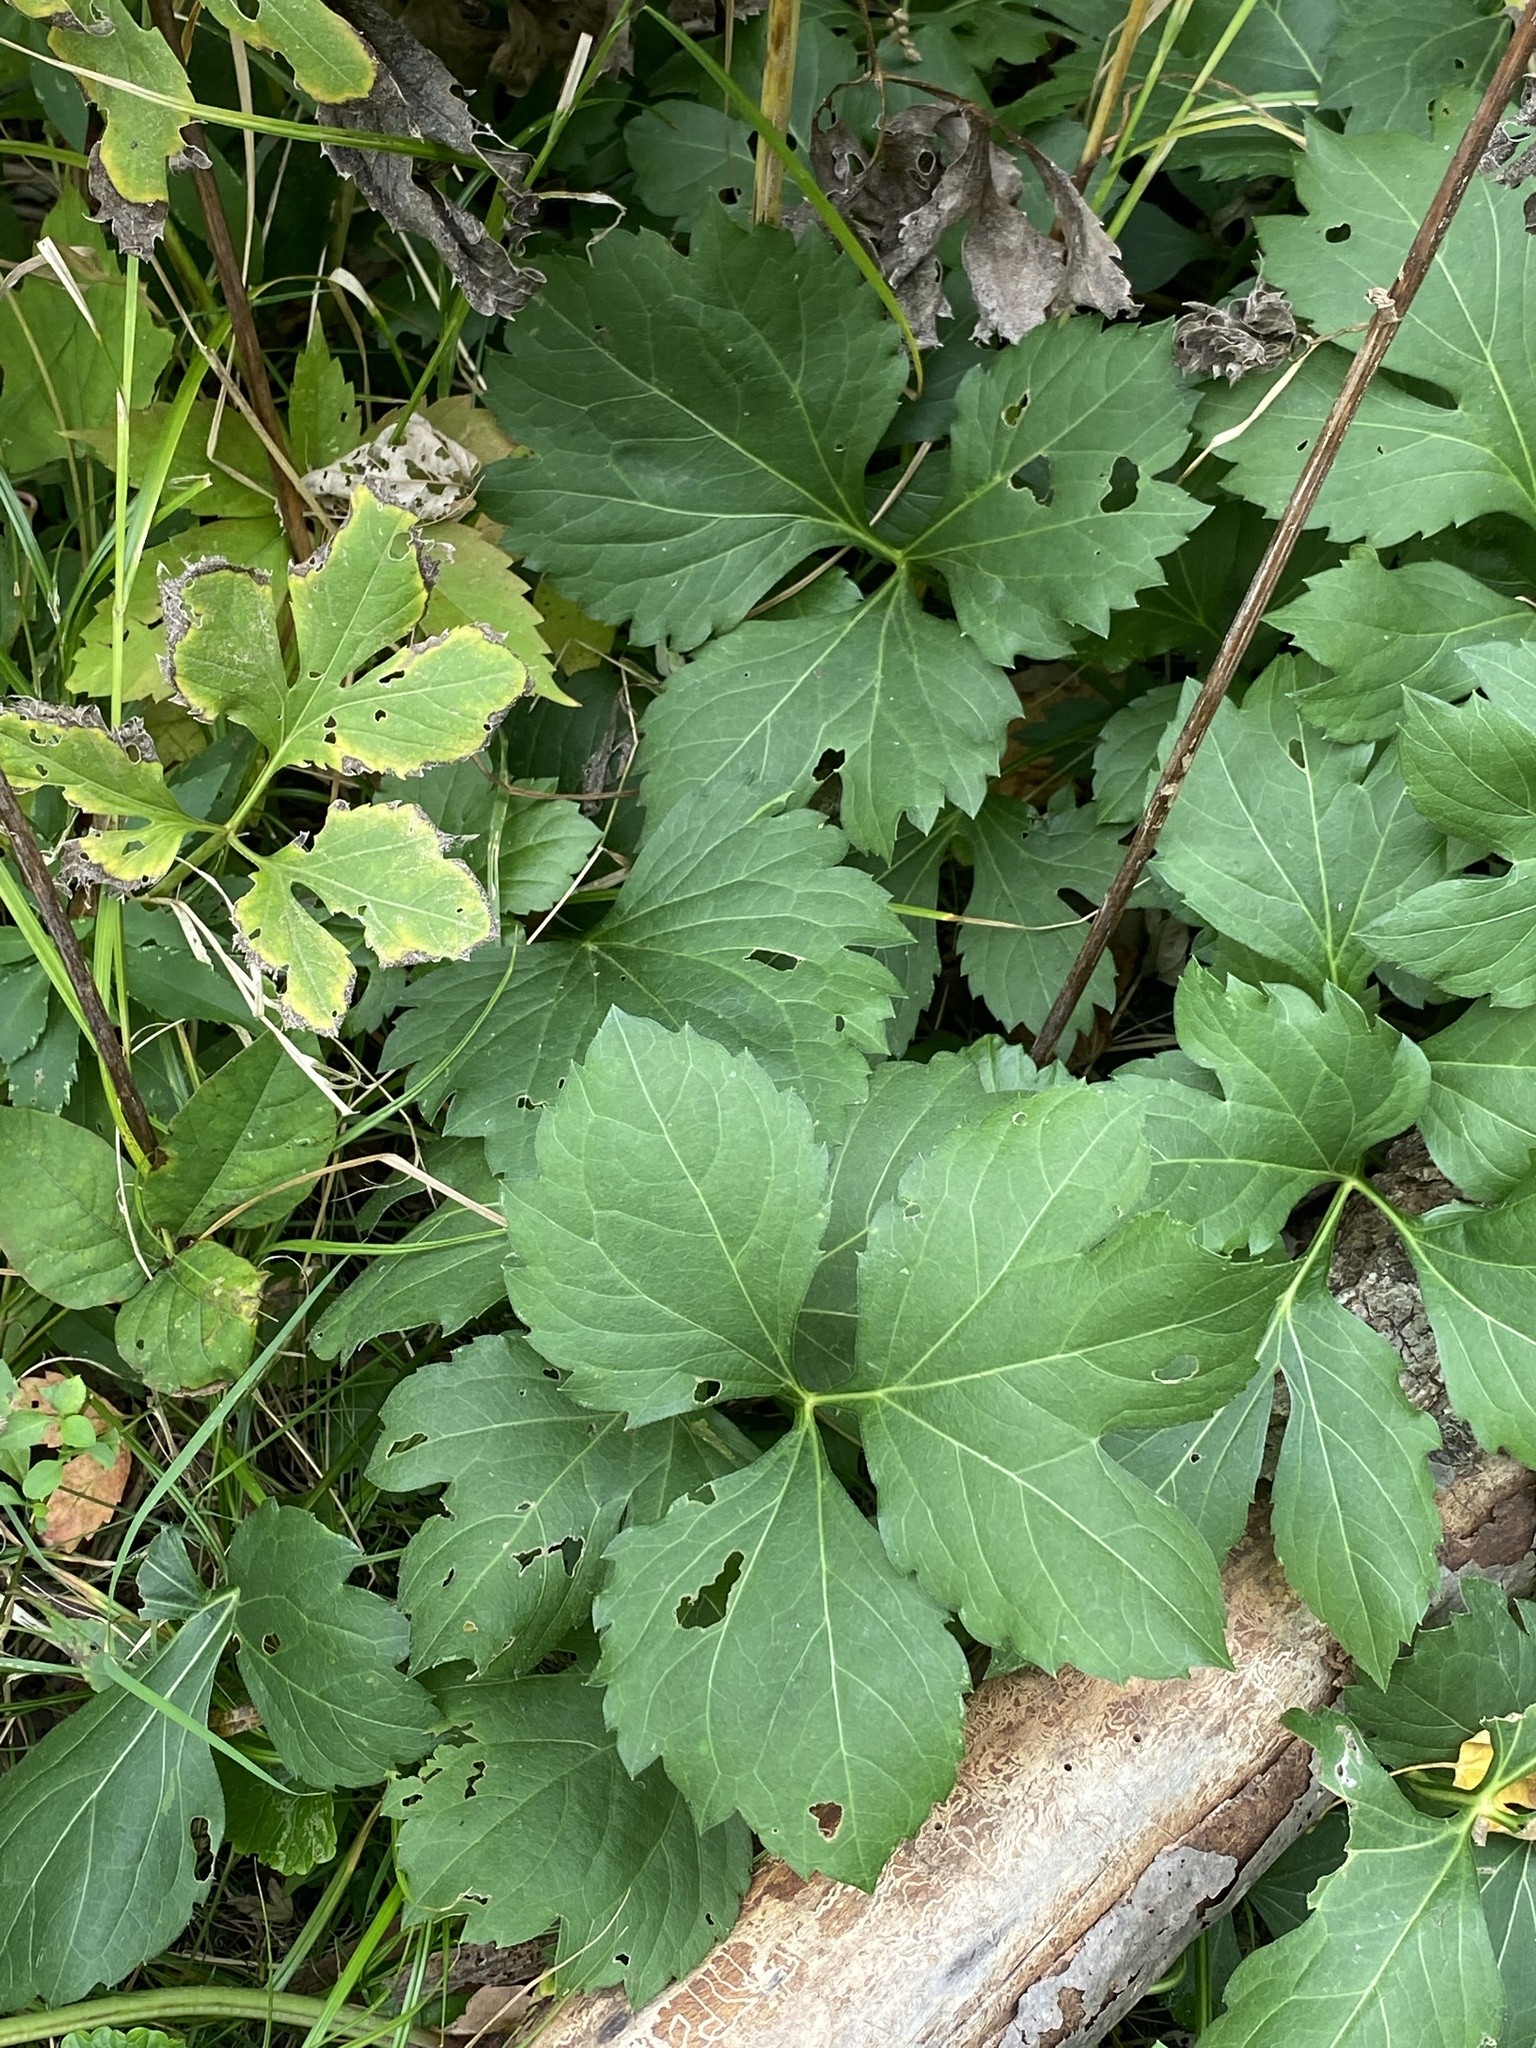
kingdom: Plantae
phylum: Tracheophyta
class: Magnoliopsida
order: Asterales
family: Asteraceae
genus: Rudbeckia
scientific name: Rudbeckia laciniata
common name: Coneflower
